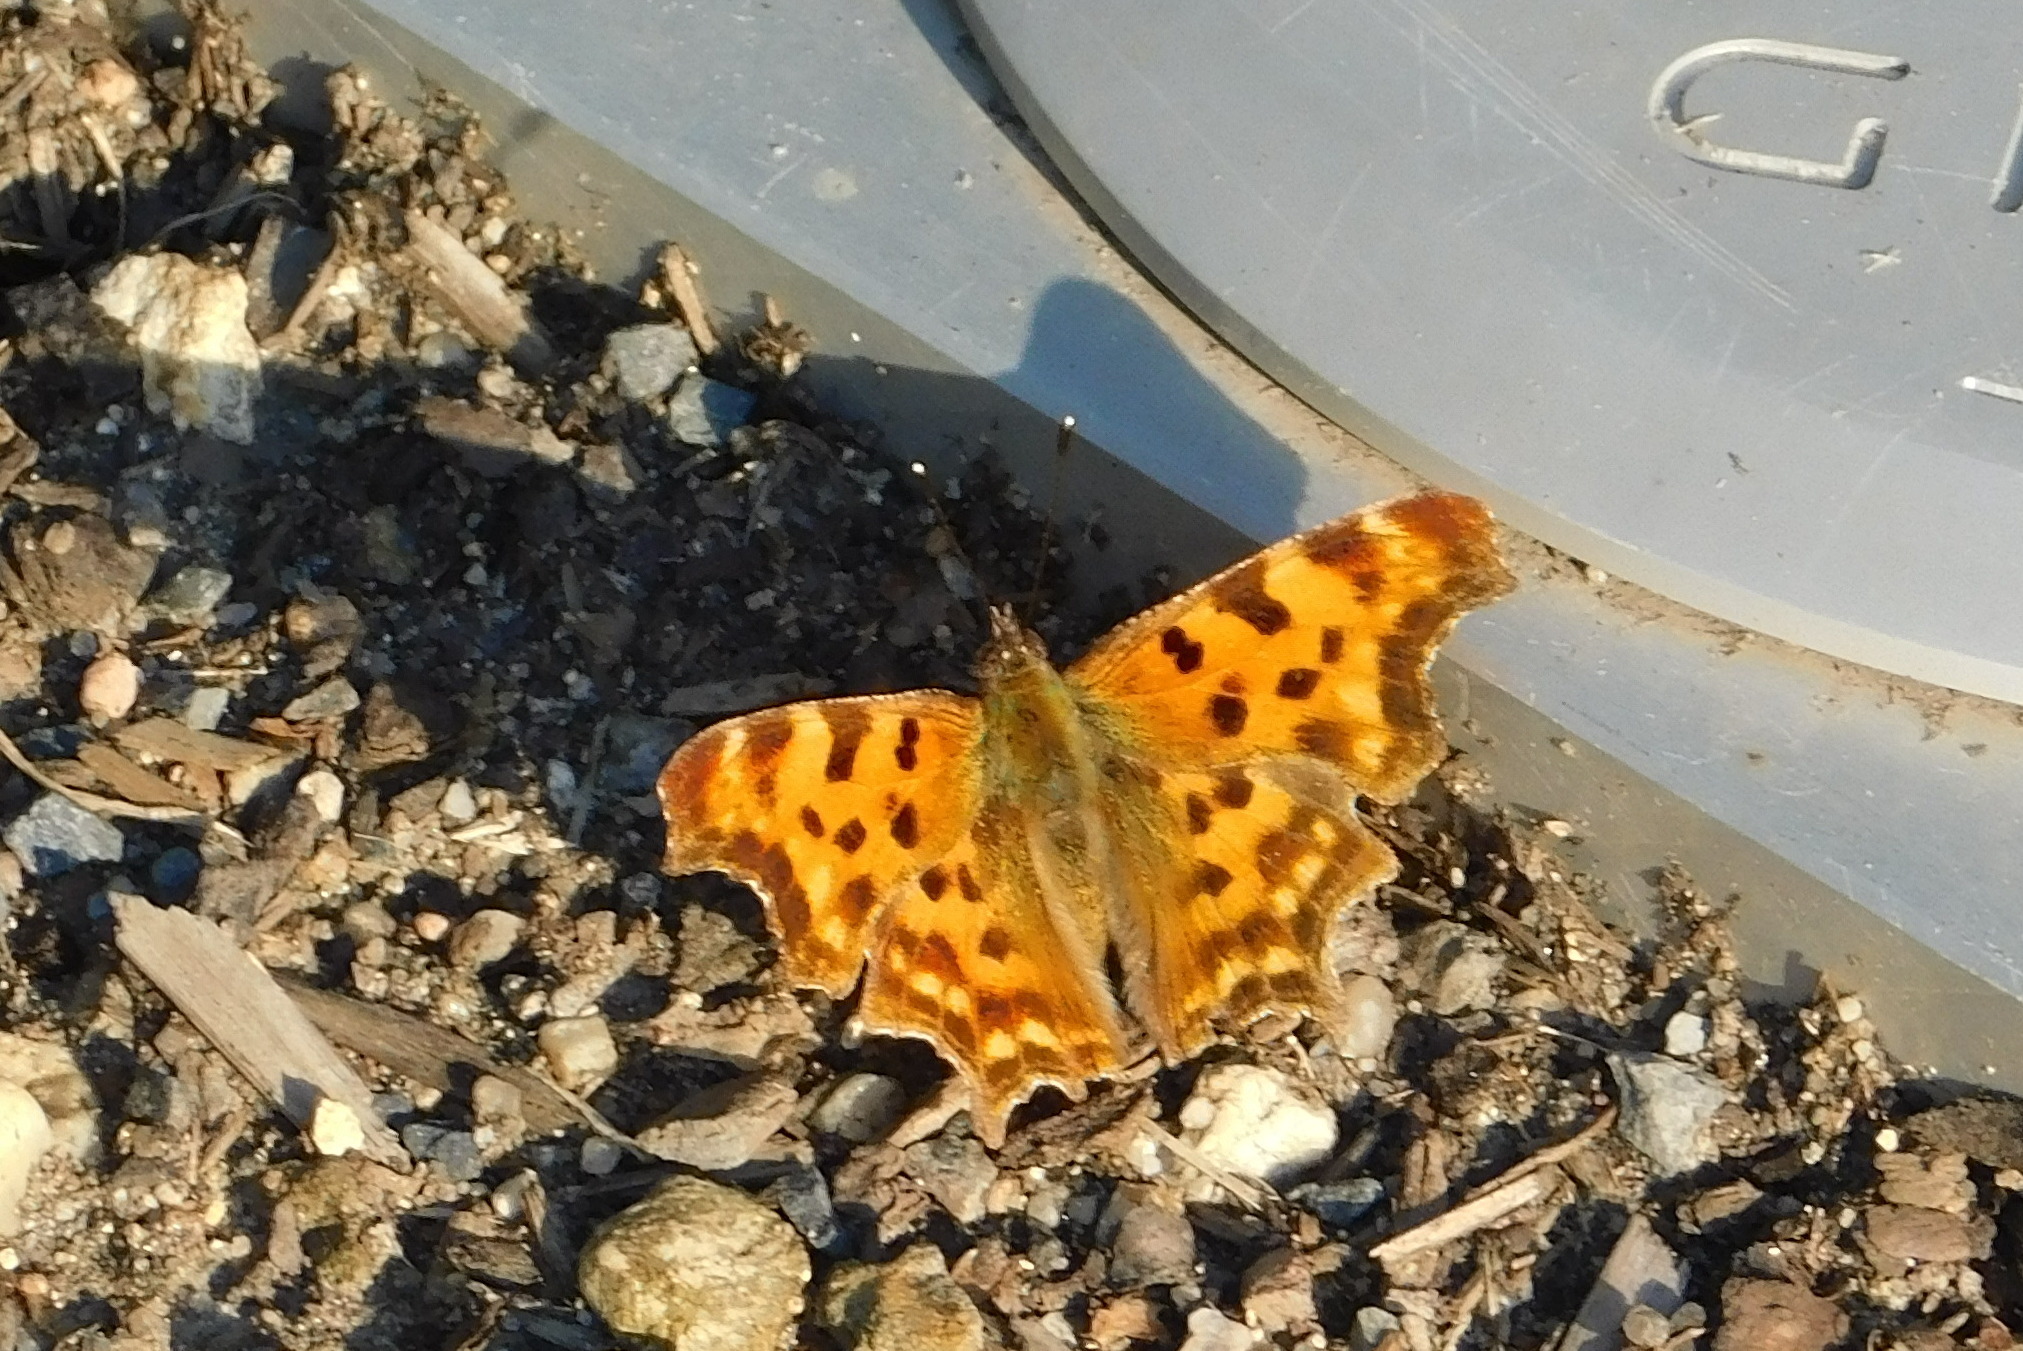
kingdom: Animalia
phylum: Arthropoda
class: Insecta
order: Lepidoptera
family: Nymphalidae
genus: Polygonia
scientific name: Polygonia c-album
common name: Comma
